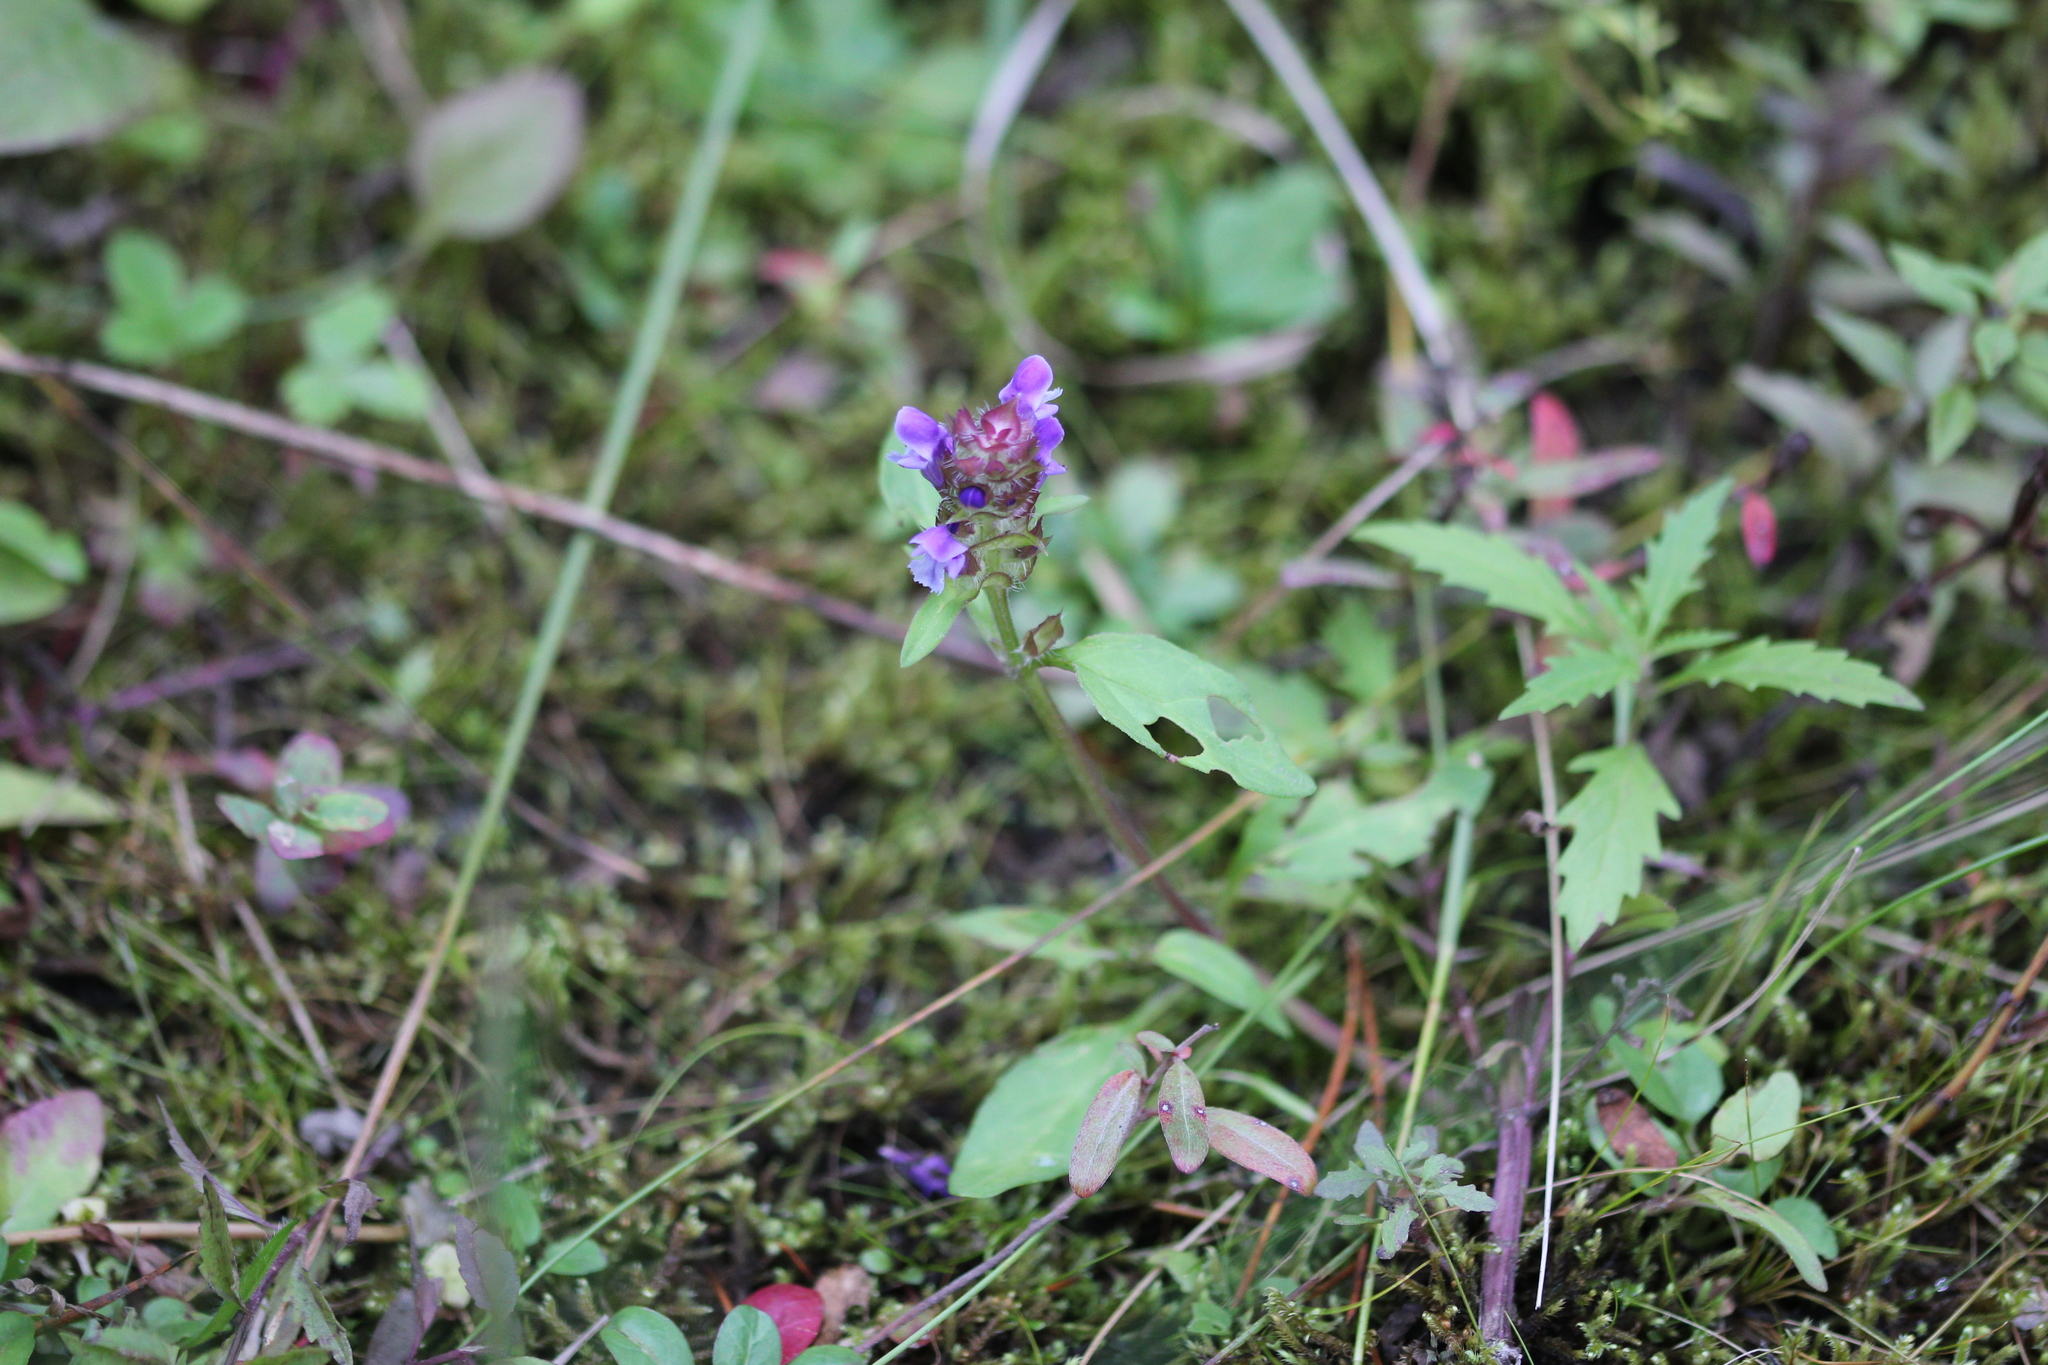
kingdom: Plantae
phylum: Tracheophyta
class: Magnoliopsida
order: Lamiales
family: Lamiaceae
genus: Prunella
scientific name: Prunella vulgaris
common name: Heal-all
